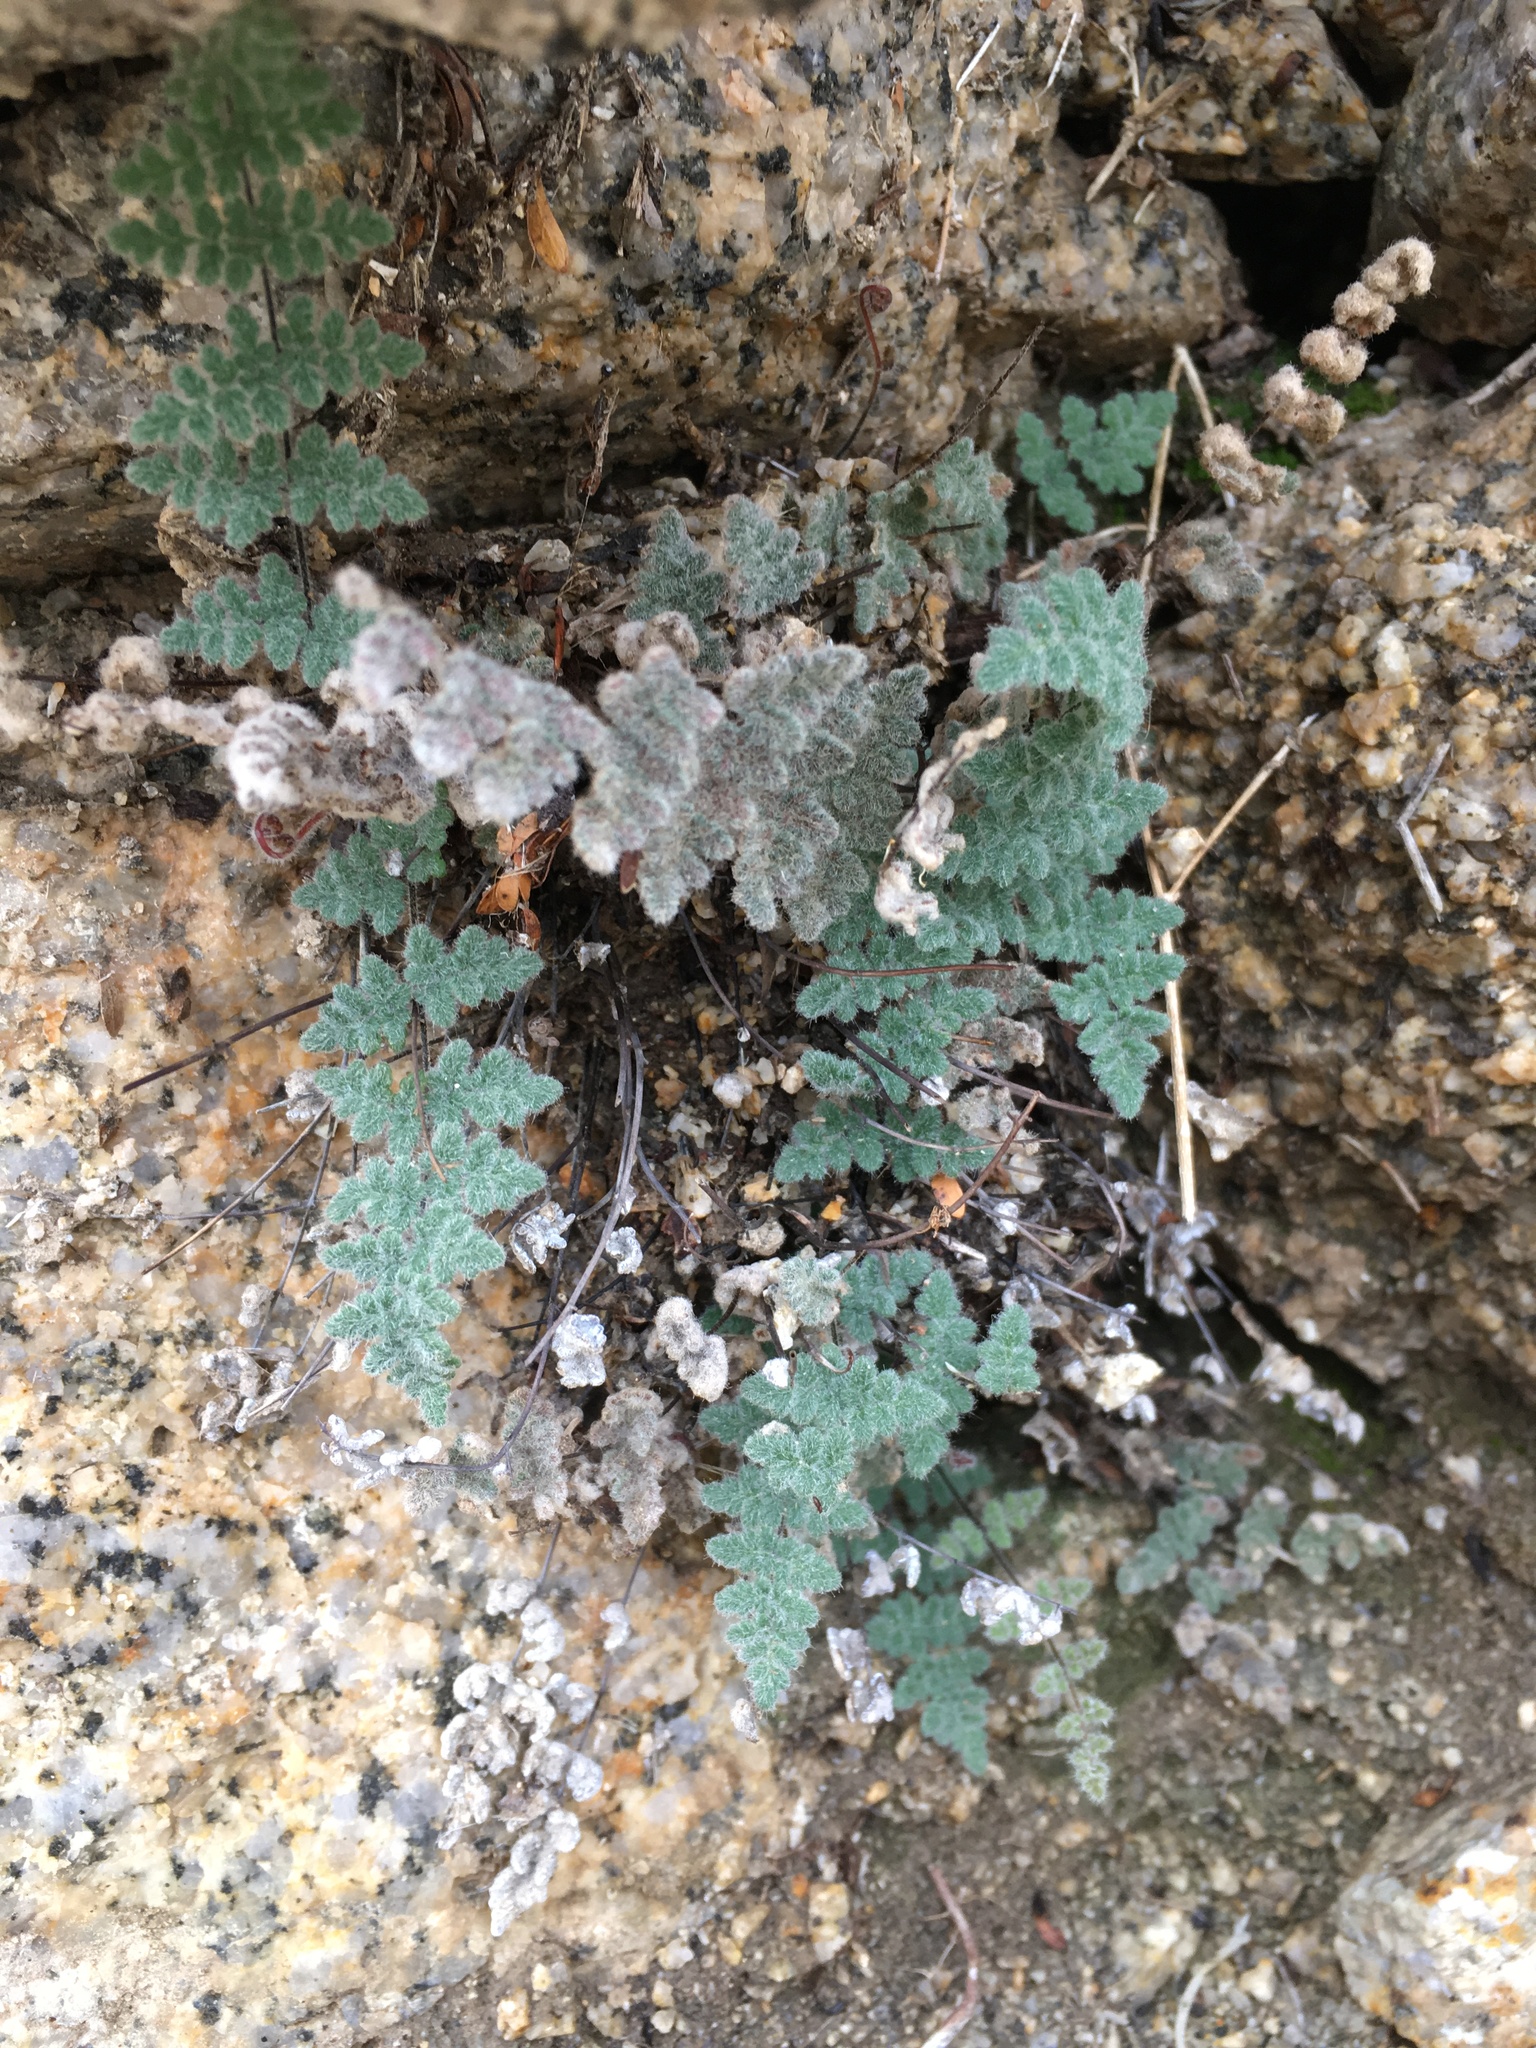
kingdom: Plantae
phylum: Tracheophyta
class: Polypodiopsida
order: Polypodiales
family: Pteridaceae
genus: Myriopteris
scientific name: Myriopteris parryi
